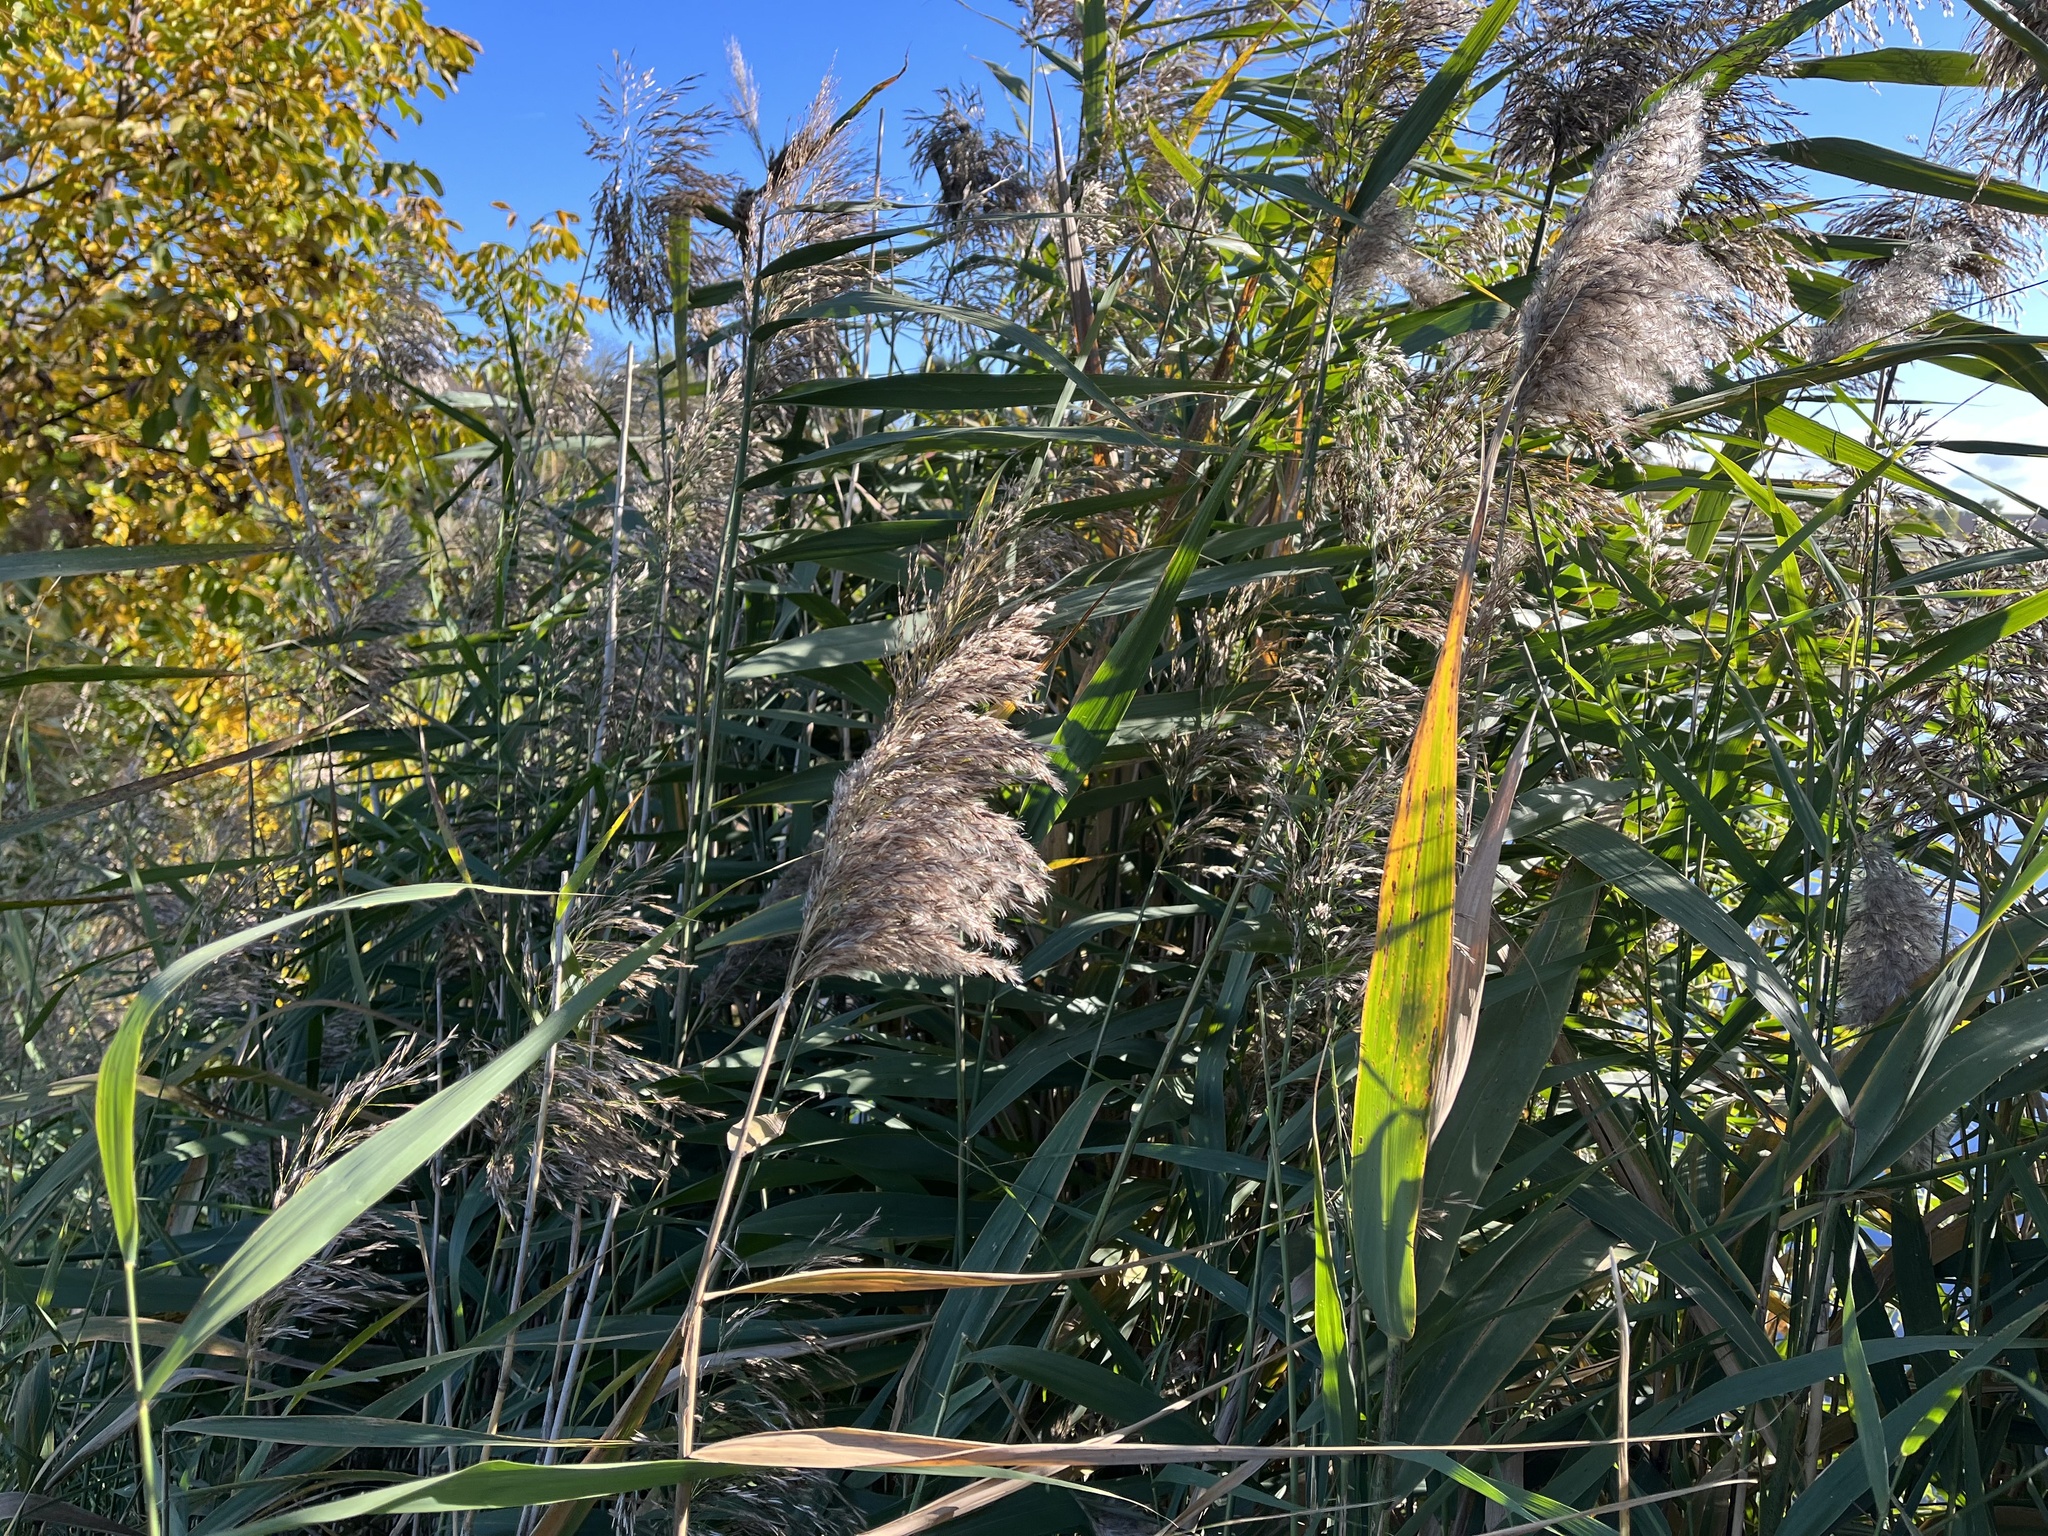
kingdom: Plantae
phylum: Tracheophyta
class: Liliopsida
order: Poales
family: Poaceae
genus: Phragmites
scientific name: Phragmites australis
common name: Common reed
